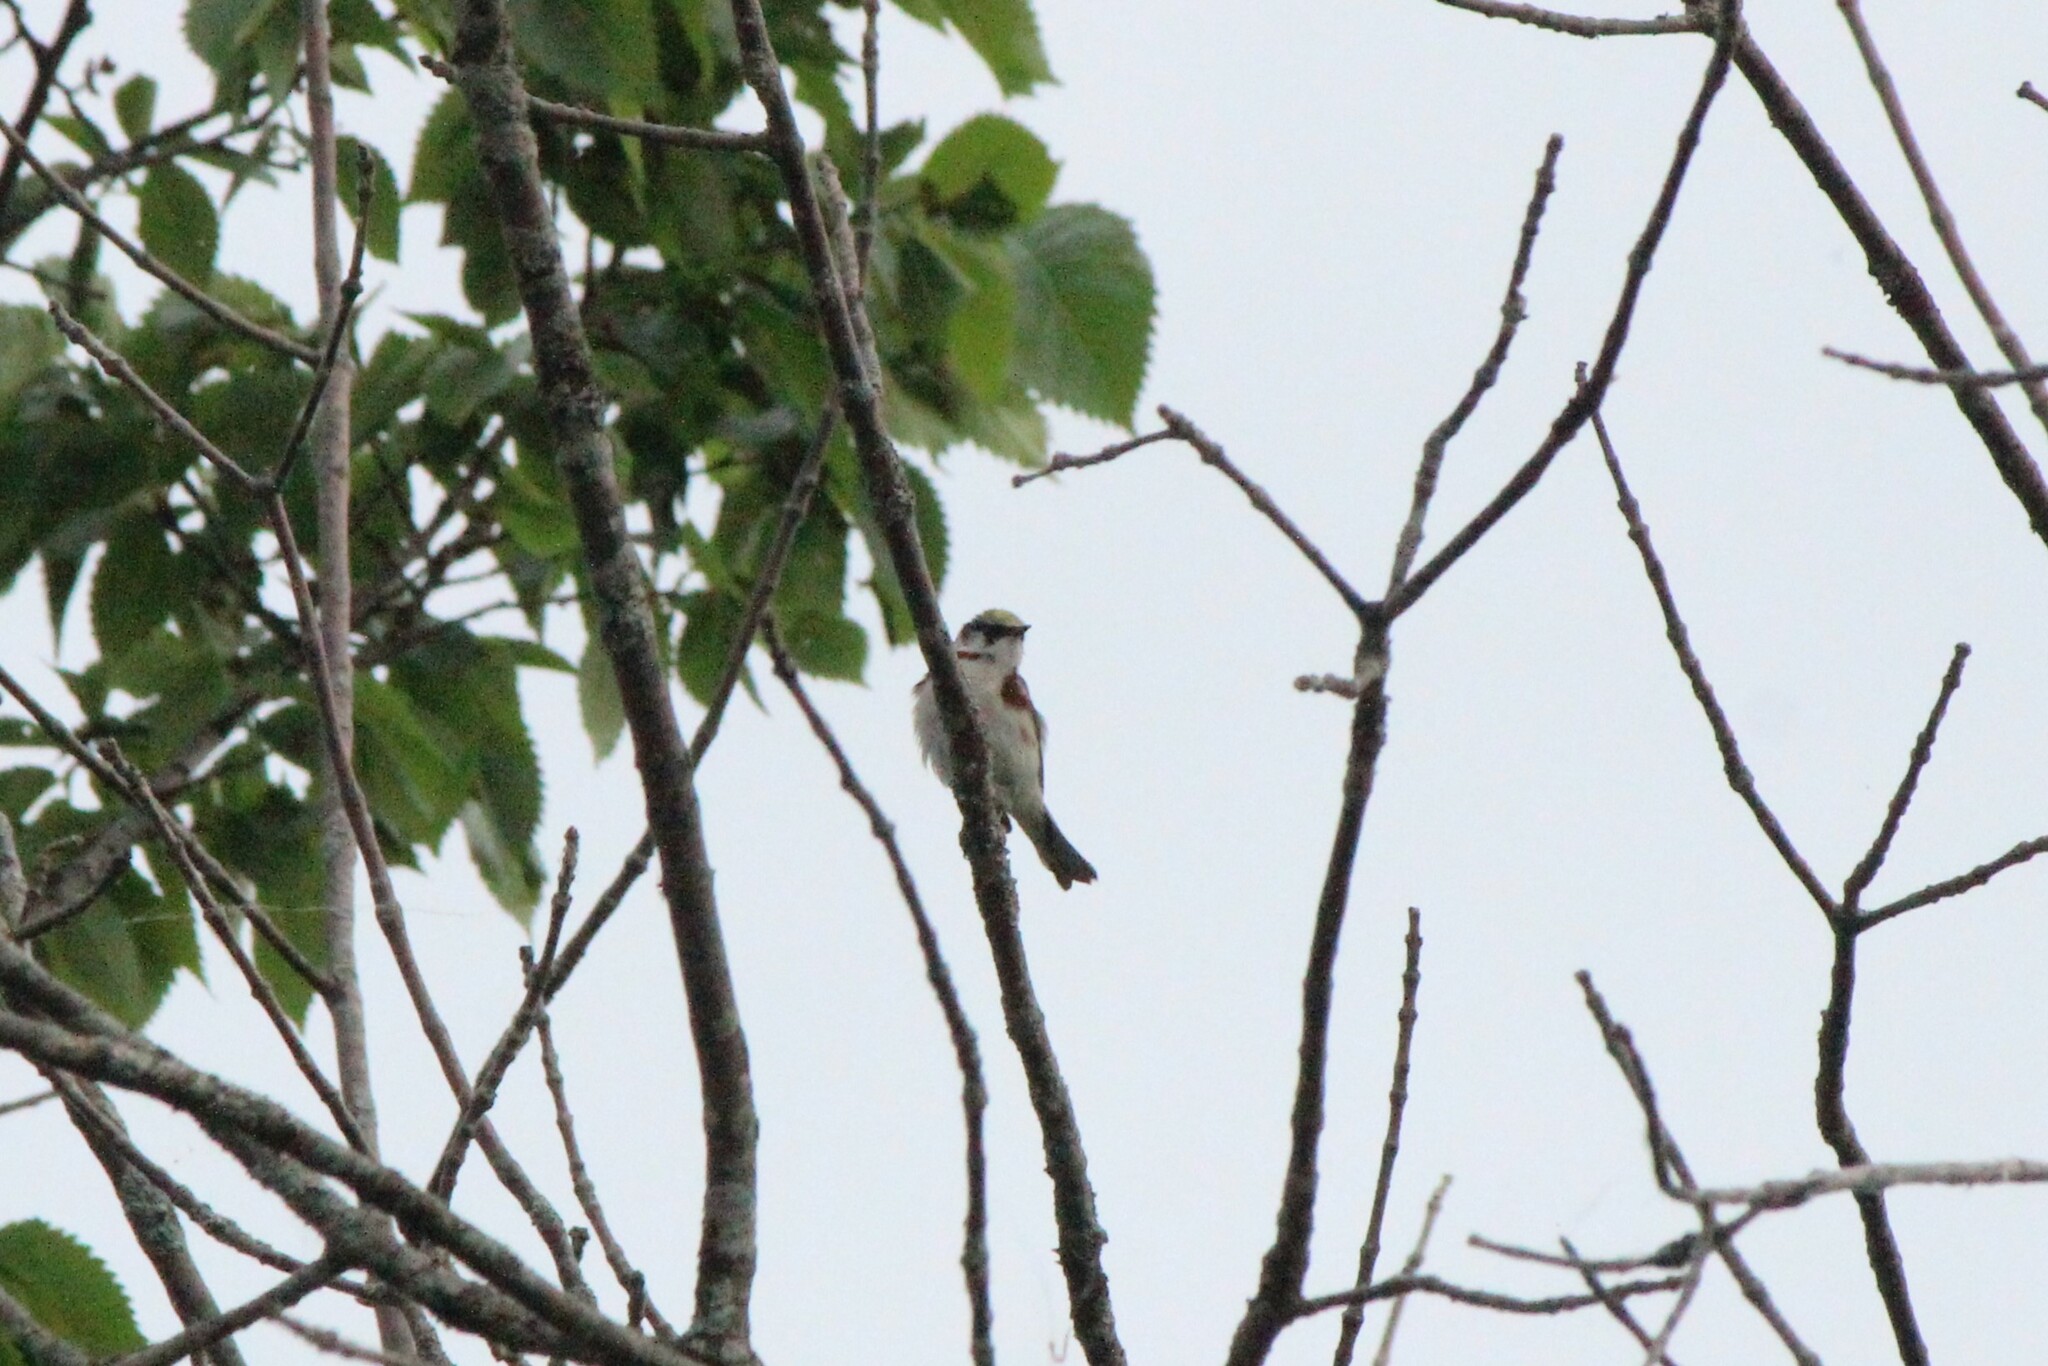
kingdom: Animalia
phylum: Chordata
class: Aves
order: Passeriformes
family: Parulidae
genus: Setophaga
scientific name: Setophaga pensylvanica
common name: Chestnut-sided warbler
